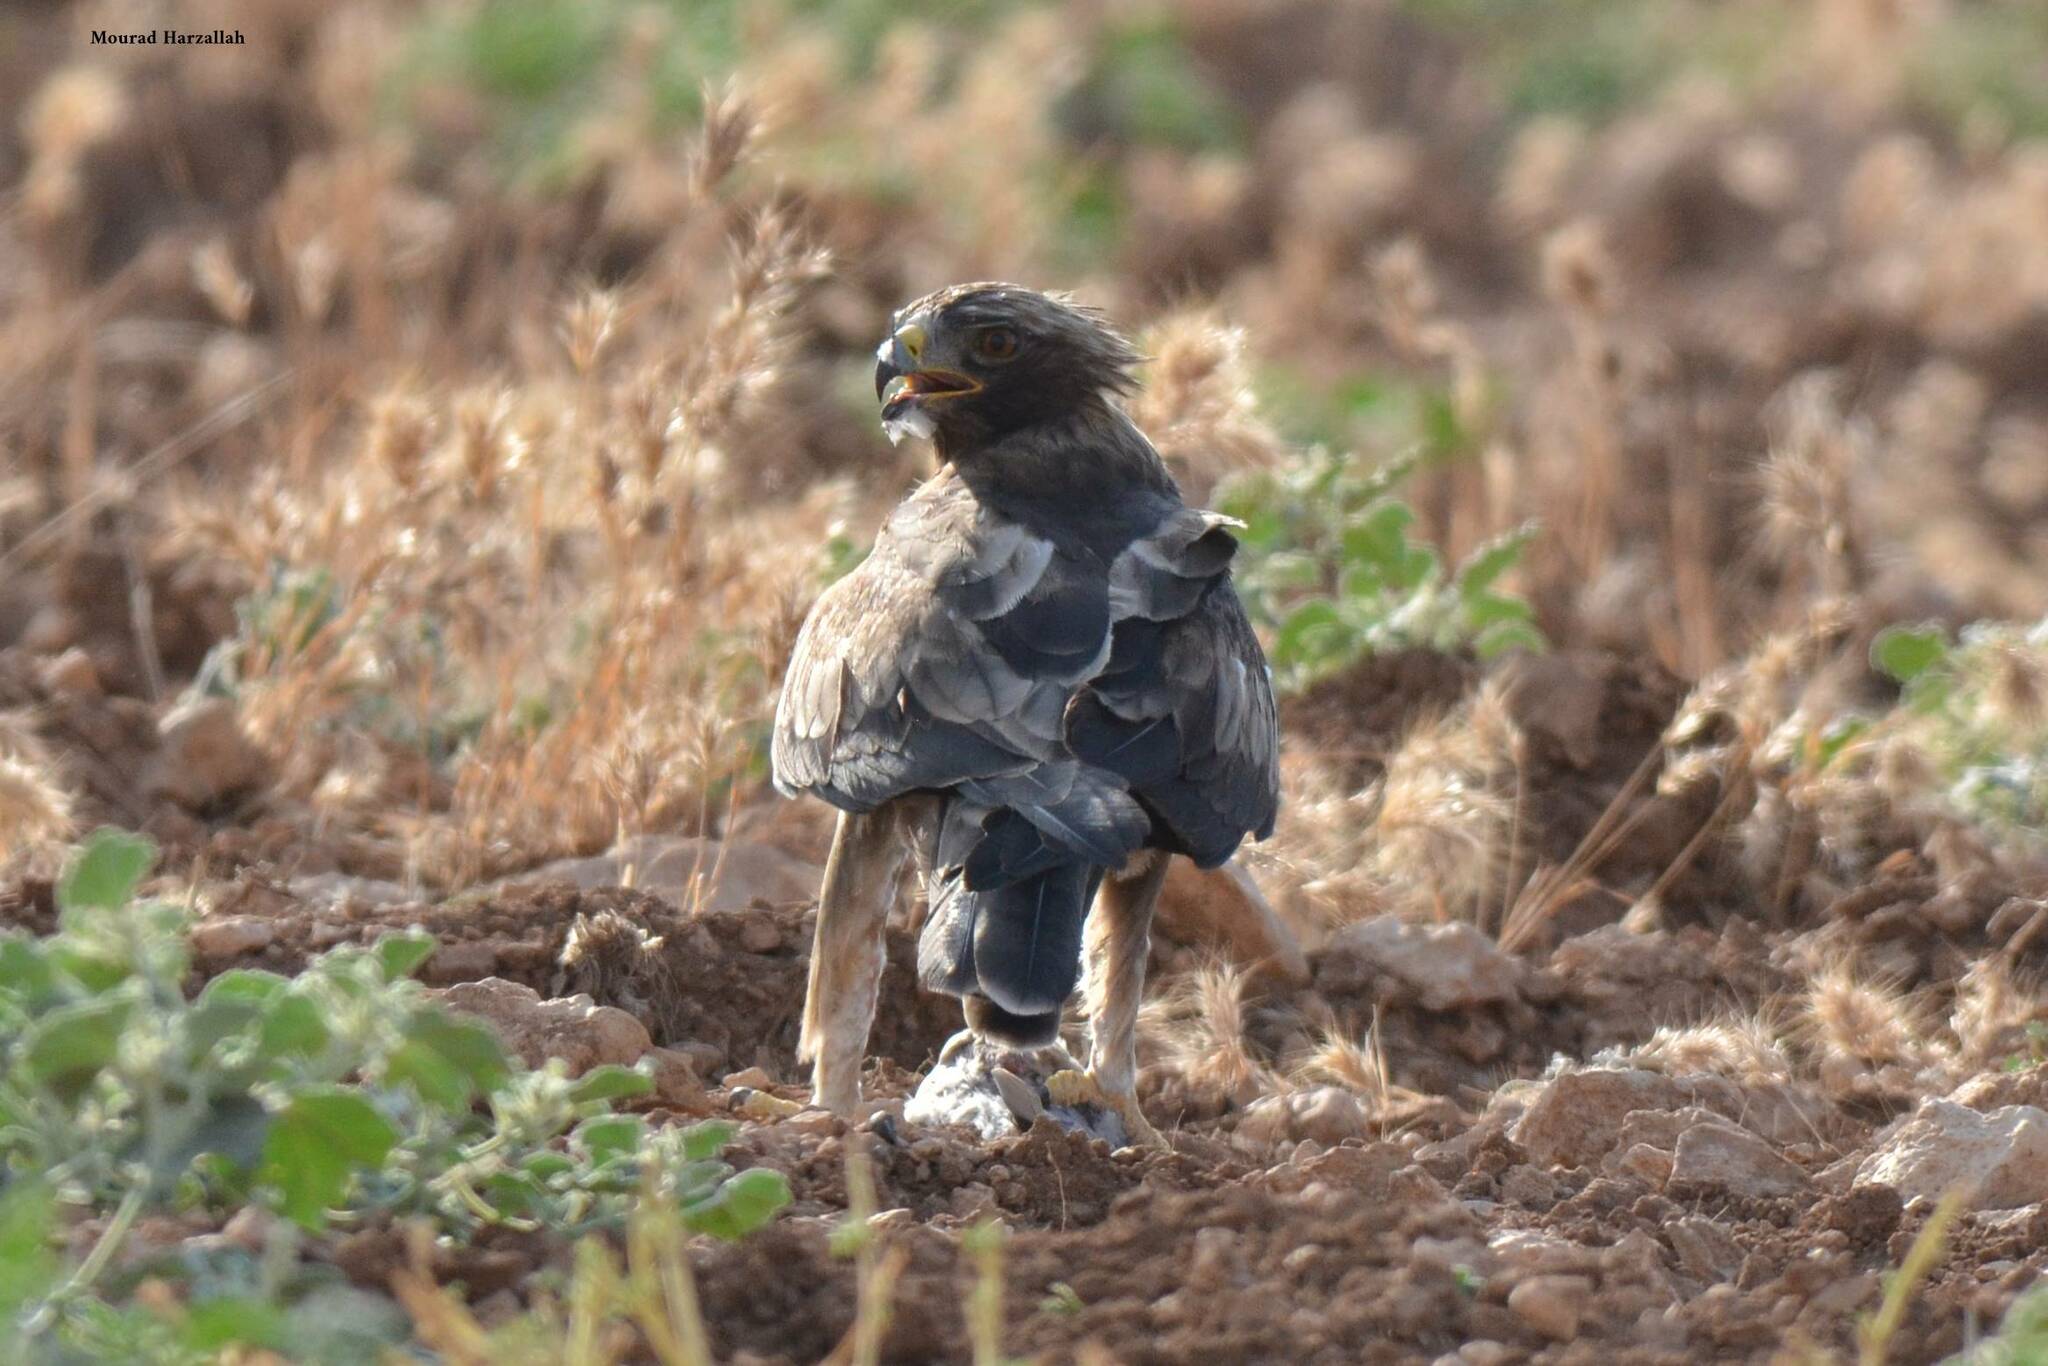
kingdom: Animalia
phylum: Chordata
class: Aves
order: Accipitriformes
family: Accipitridae
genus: Hieraaetus
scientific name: Hieraaetus pennatus
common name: Booted eagle
